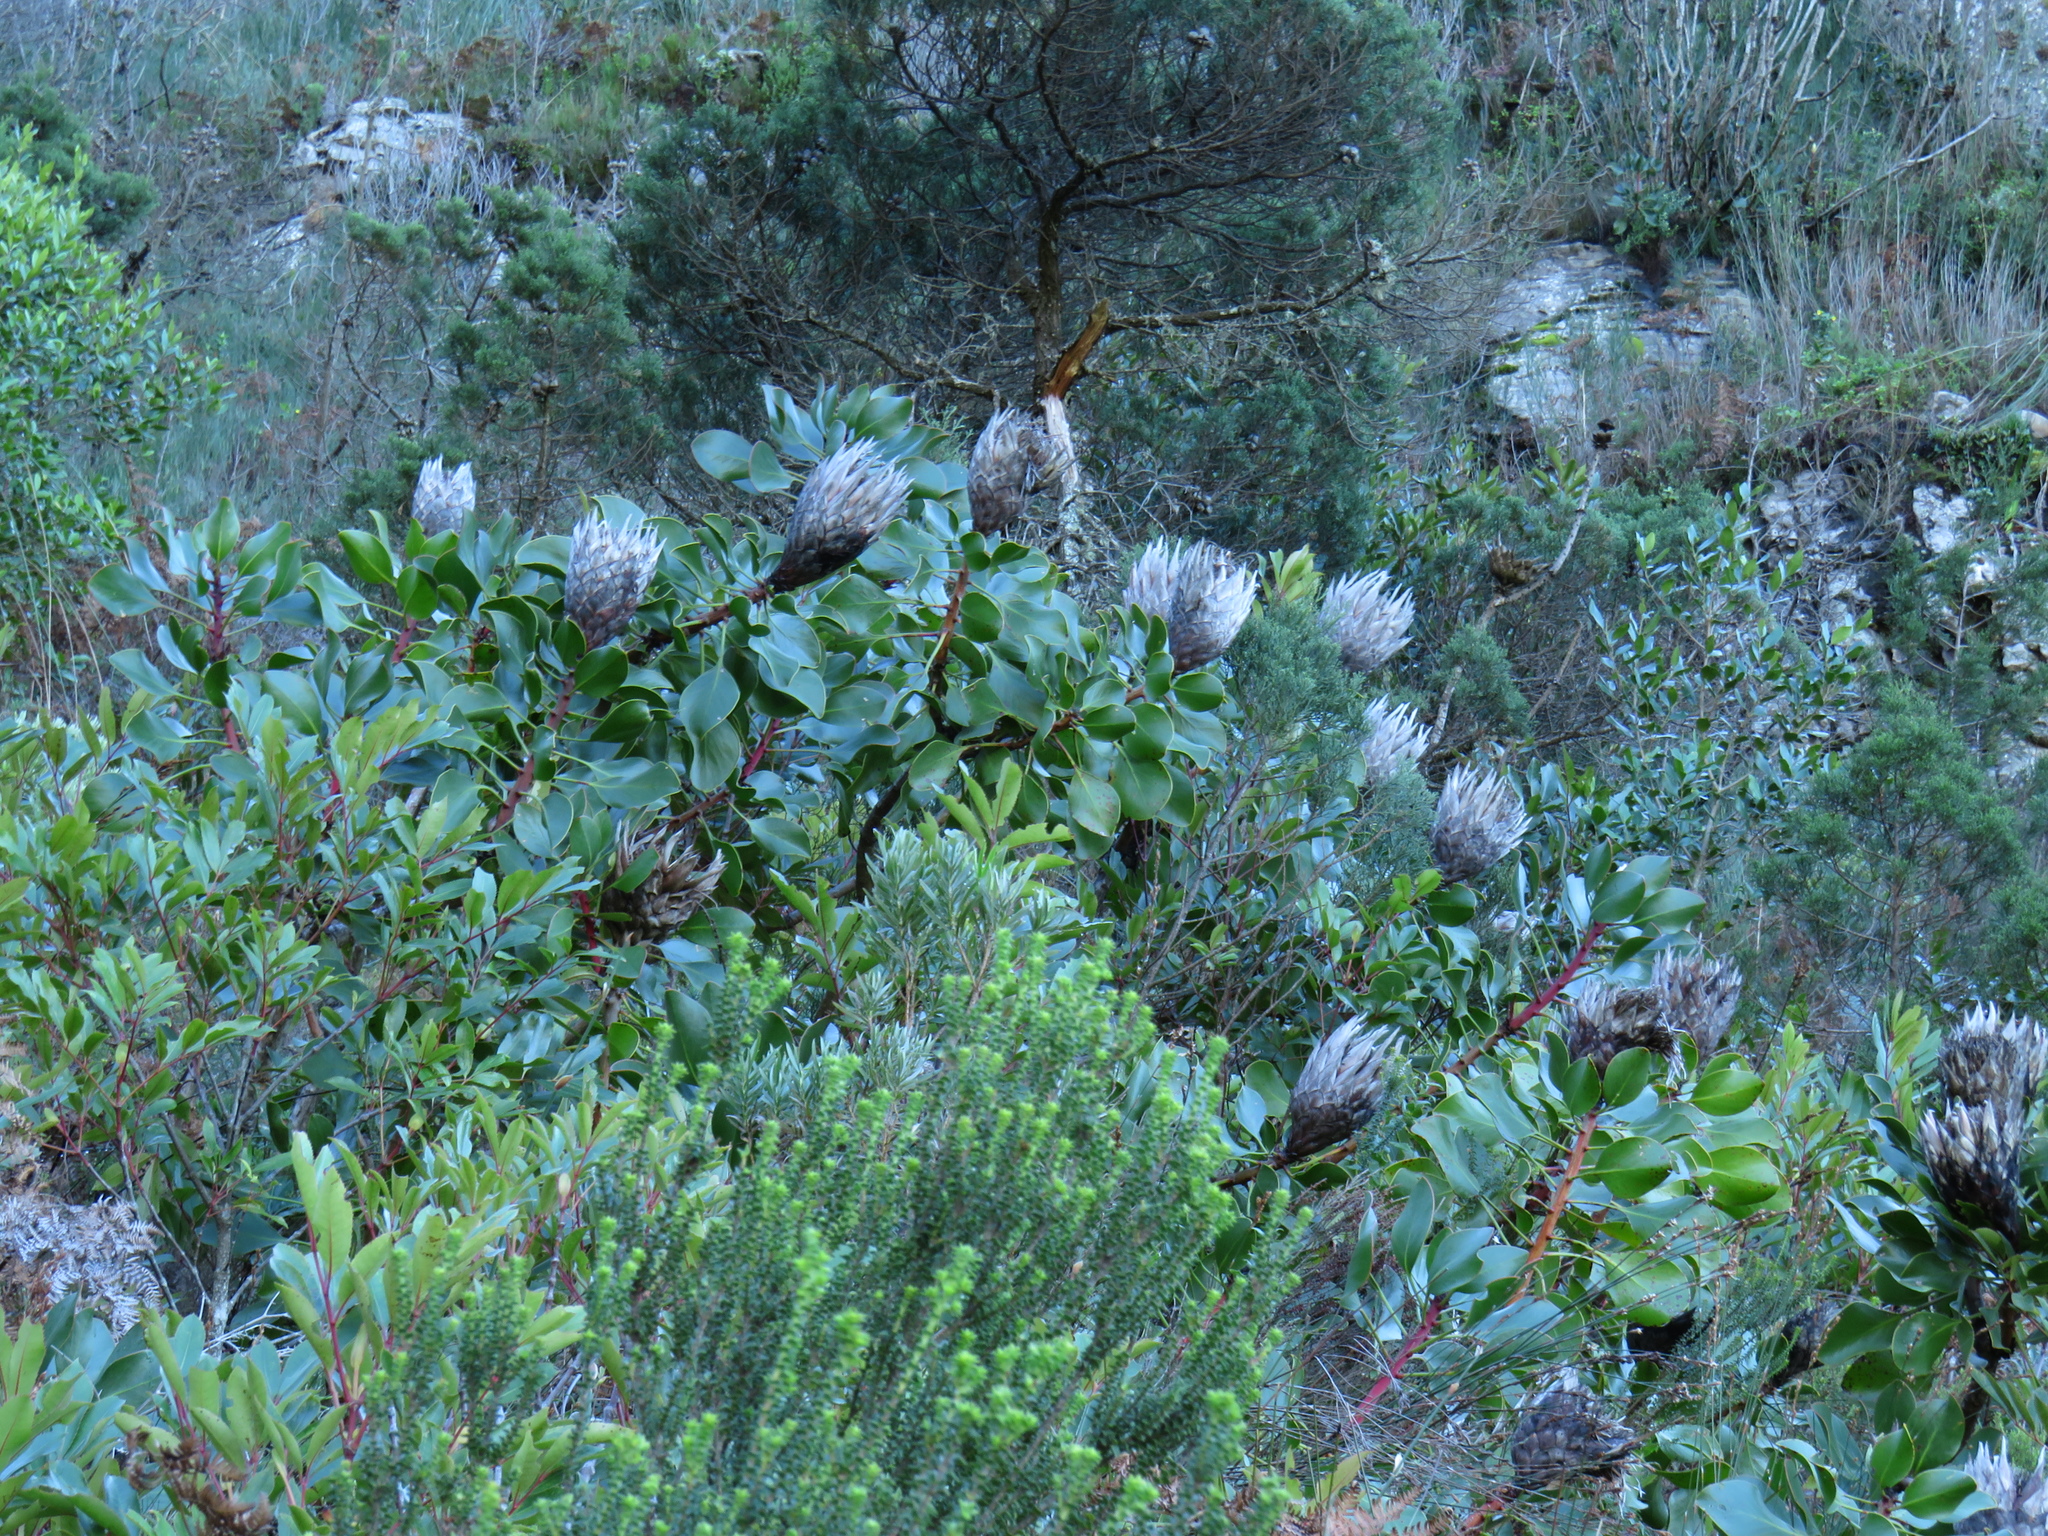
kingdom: Plantae
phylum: Tracheophyta
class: Magnoliopsida
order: Proteales
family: Proteaceae
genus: Protea
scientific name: Protea cynaroides
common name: King protea
